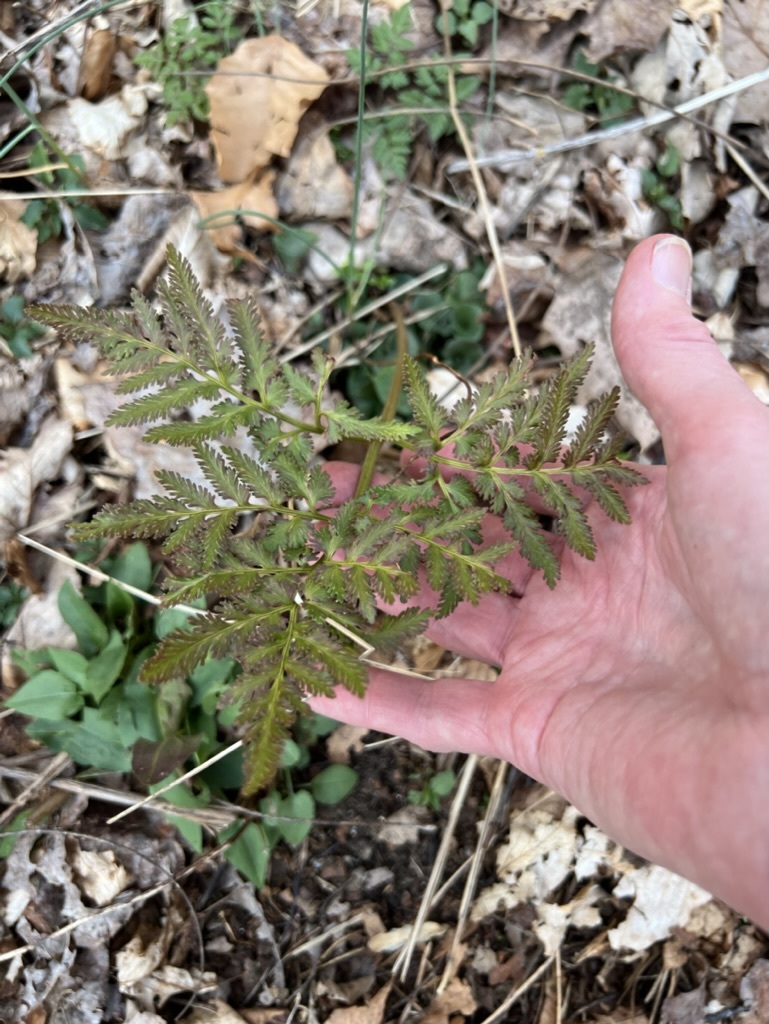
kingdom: Plantae
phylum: Tracheophyta
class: Polypodiopsida
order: Ophioglossales
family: Ophioglossaceae
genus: Sceptridium
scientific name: Sceptridium dissectum
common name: Cut-leaved grapefern
